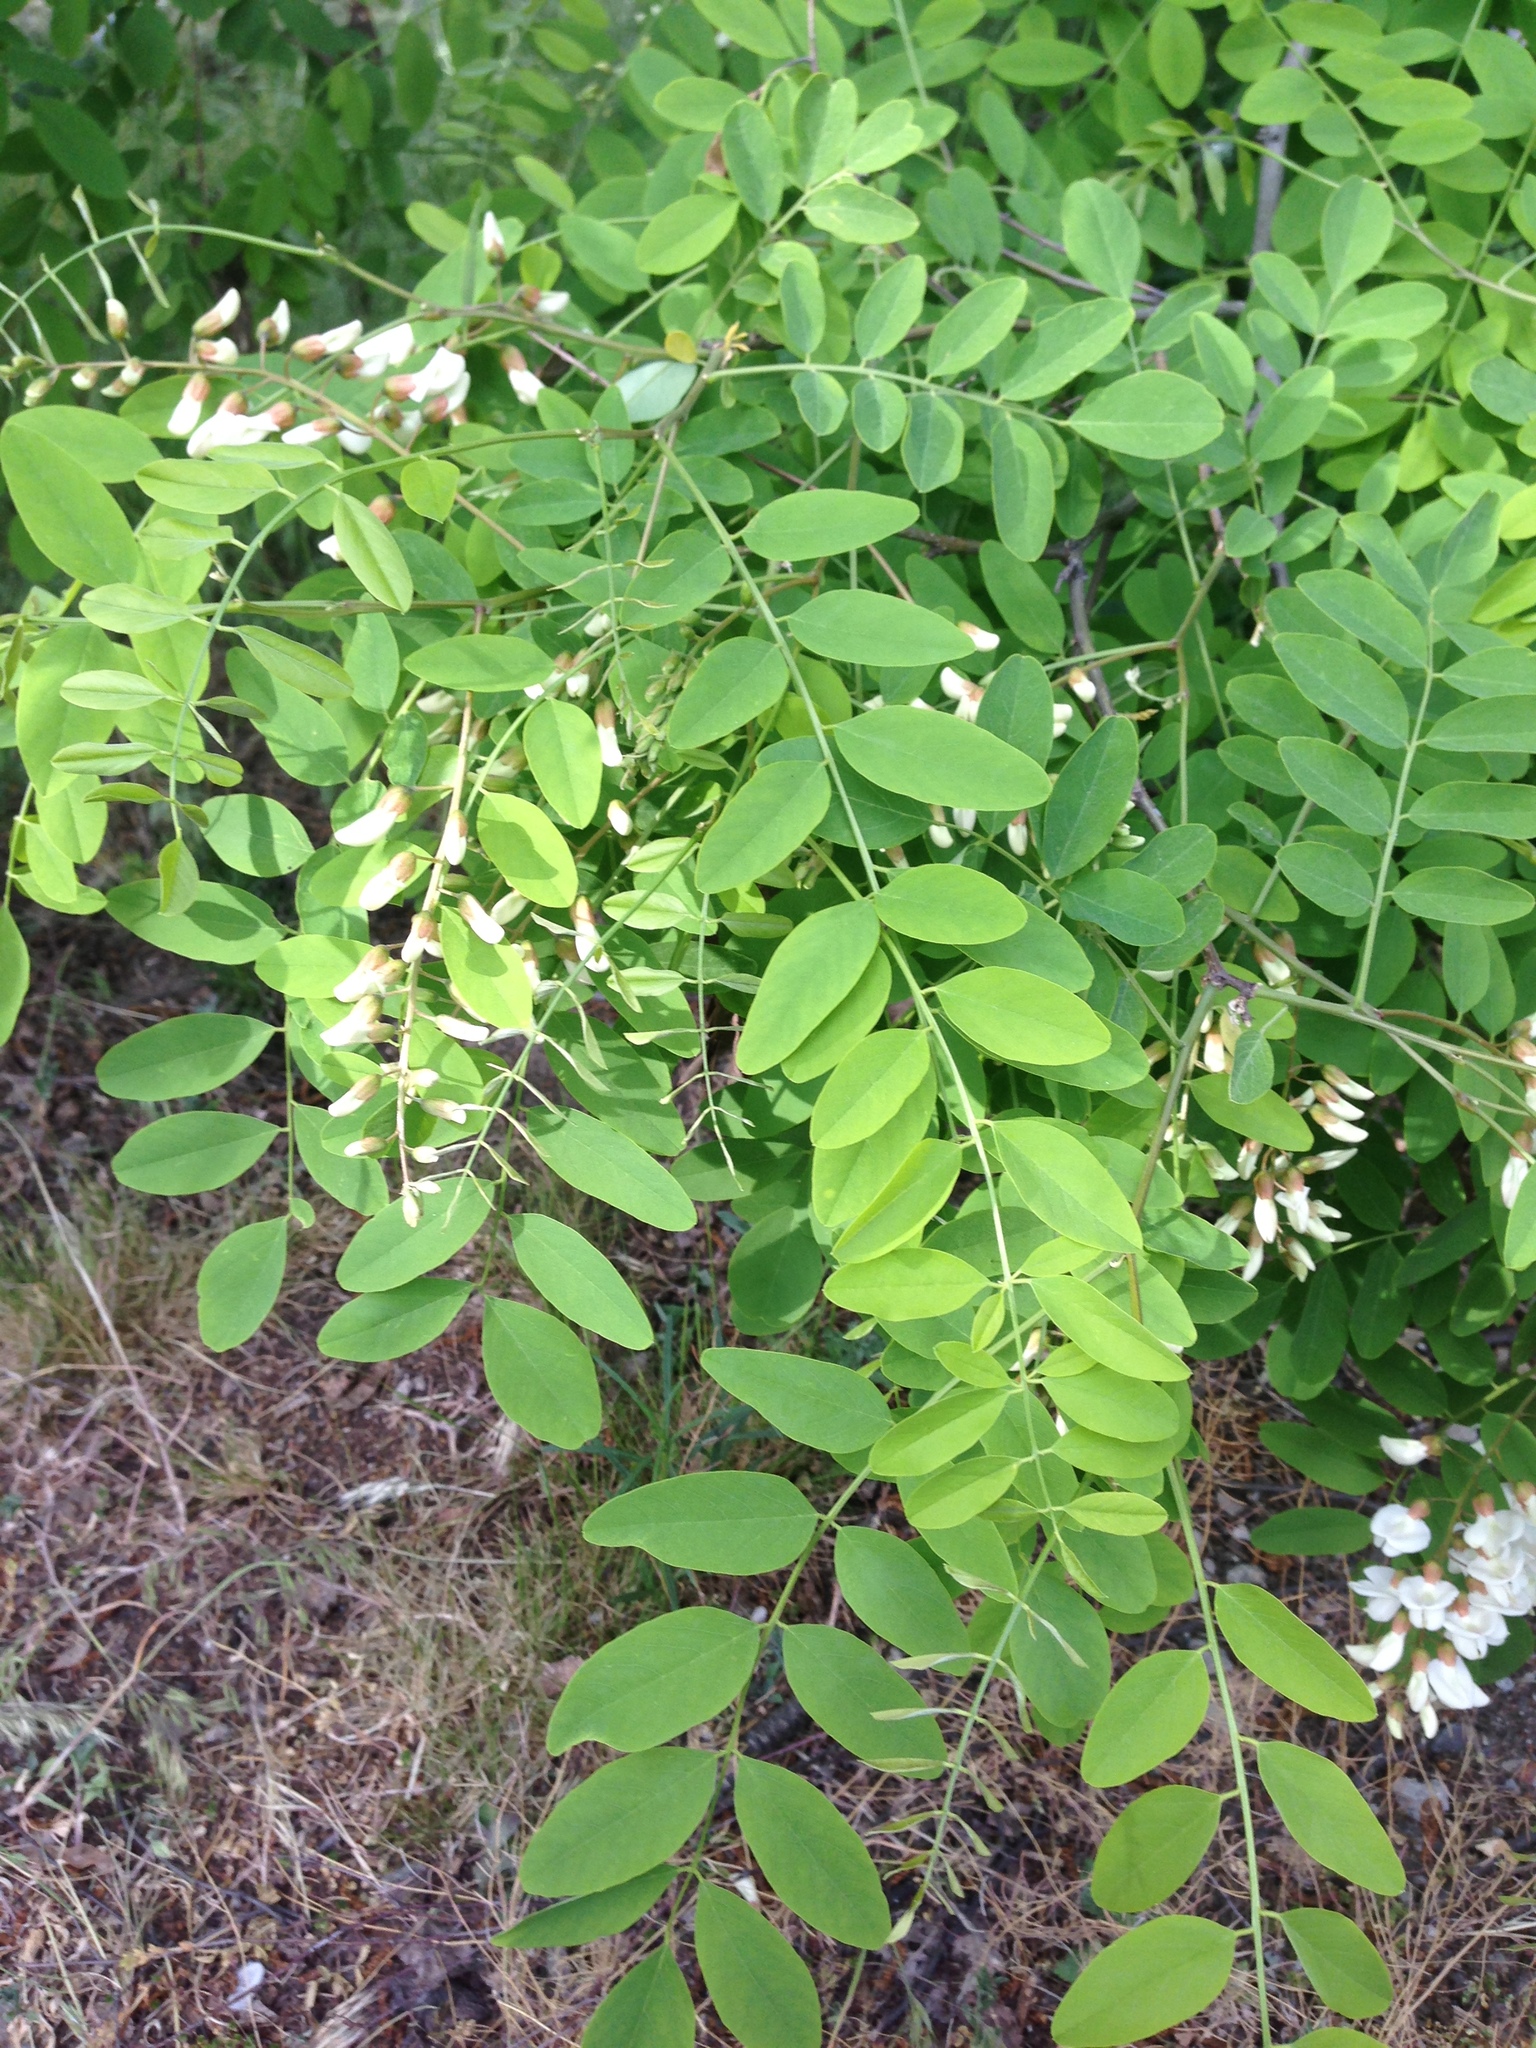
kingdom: Plantae
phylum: Tracheophyta
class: Magnoliopsida
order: Fabales
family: Fabaceae
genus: Robinia
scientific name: Robinia pseudoacacia
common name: Black locust
